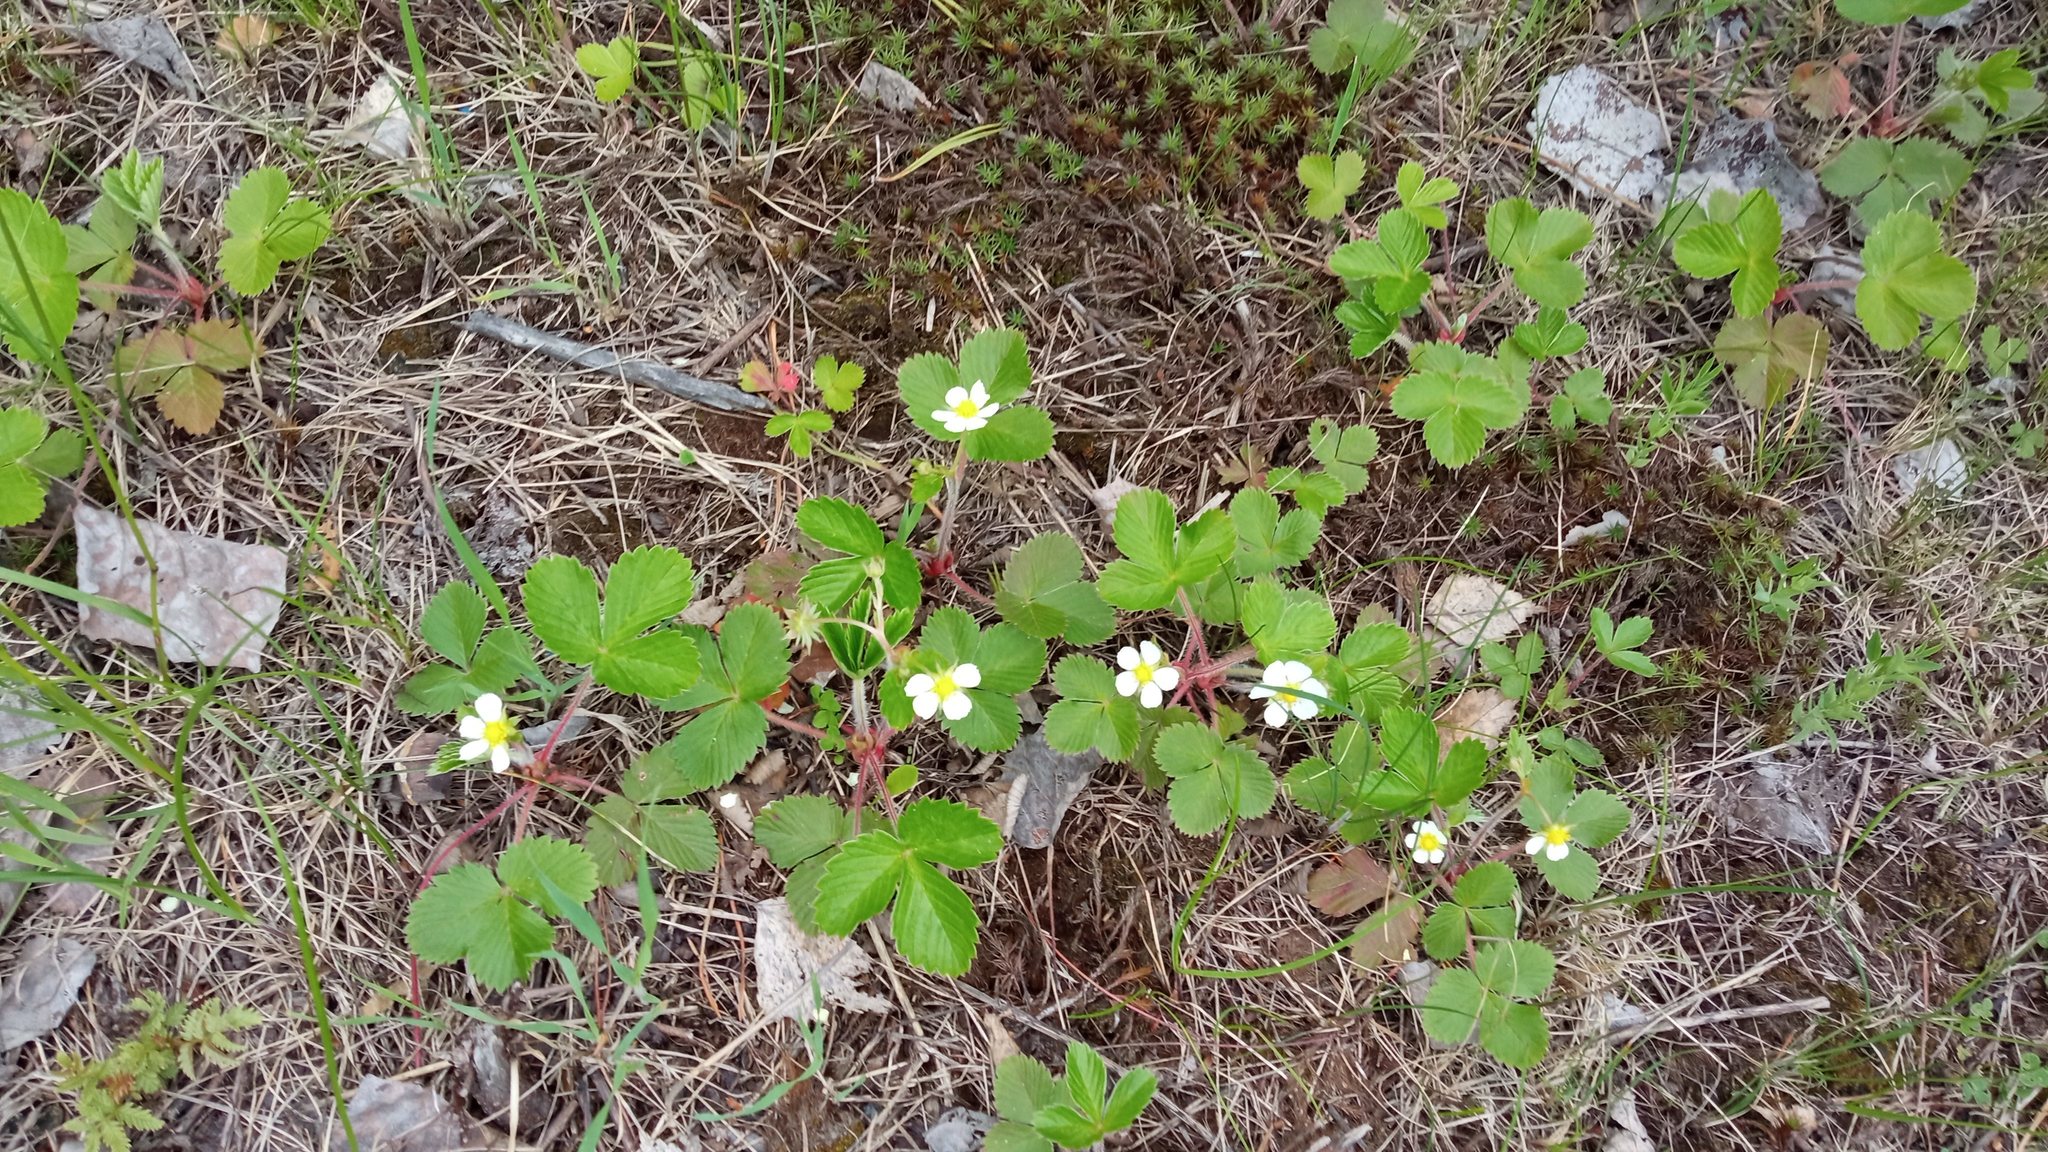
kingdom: Plantae
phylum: Tracheophyta
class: Magnoliopsida
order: Rosales
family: Rosaceae
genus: Fragaria
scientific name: Fragaria vesca
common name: Wild strawberry
